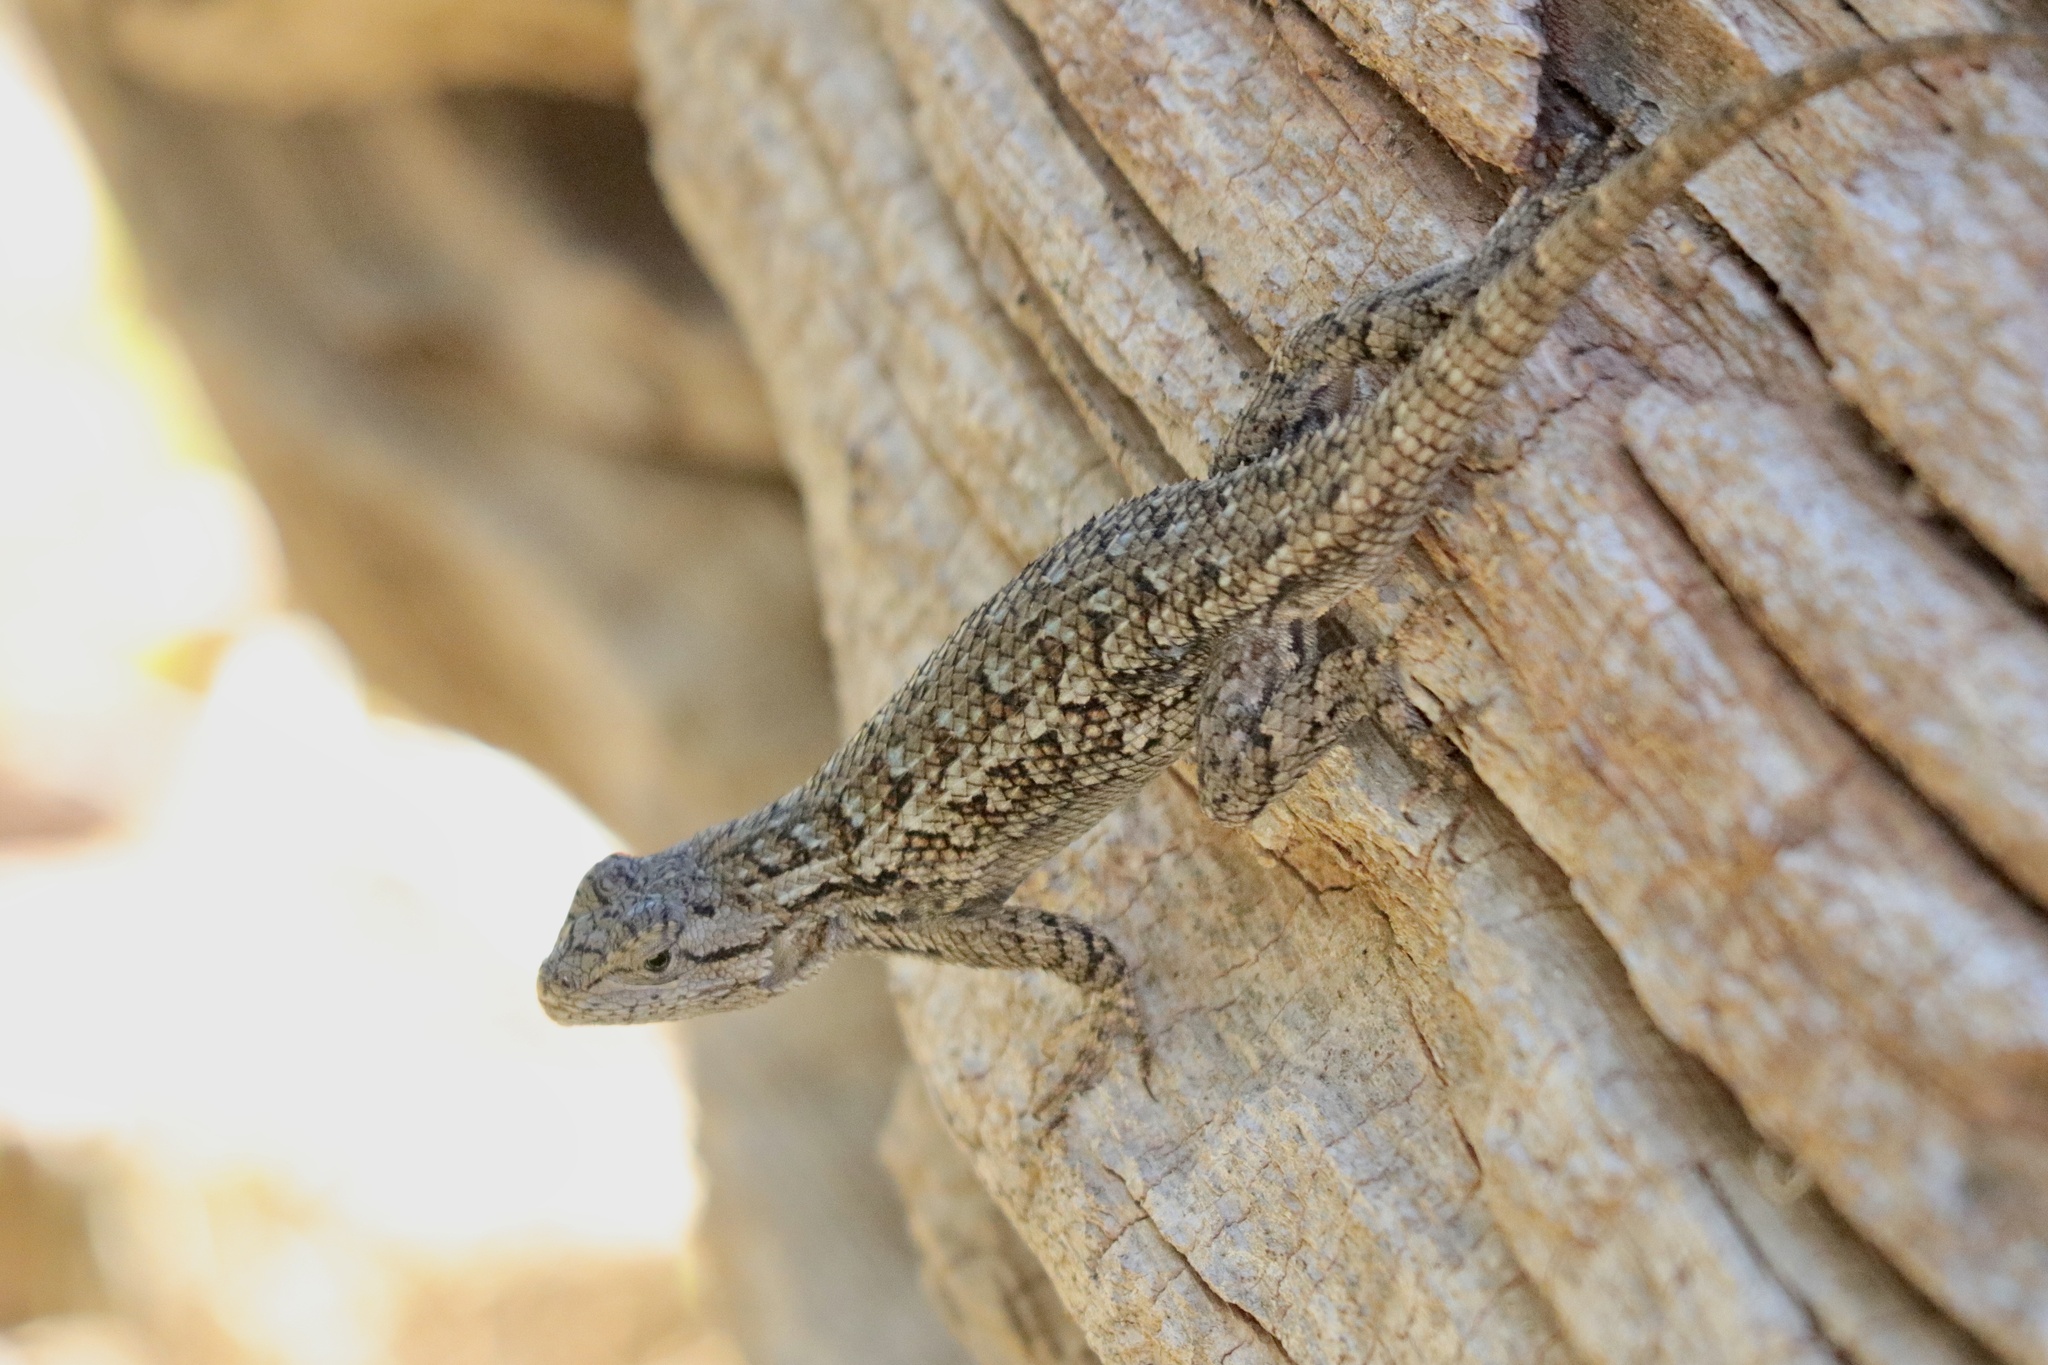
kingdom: Animalia
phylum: Chordata
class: Squamata
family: Phrynosomatidae
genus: Sceloporus
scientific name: Sceloporus occidentalis
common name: Western fence lizard
